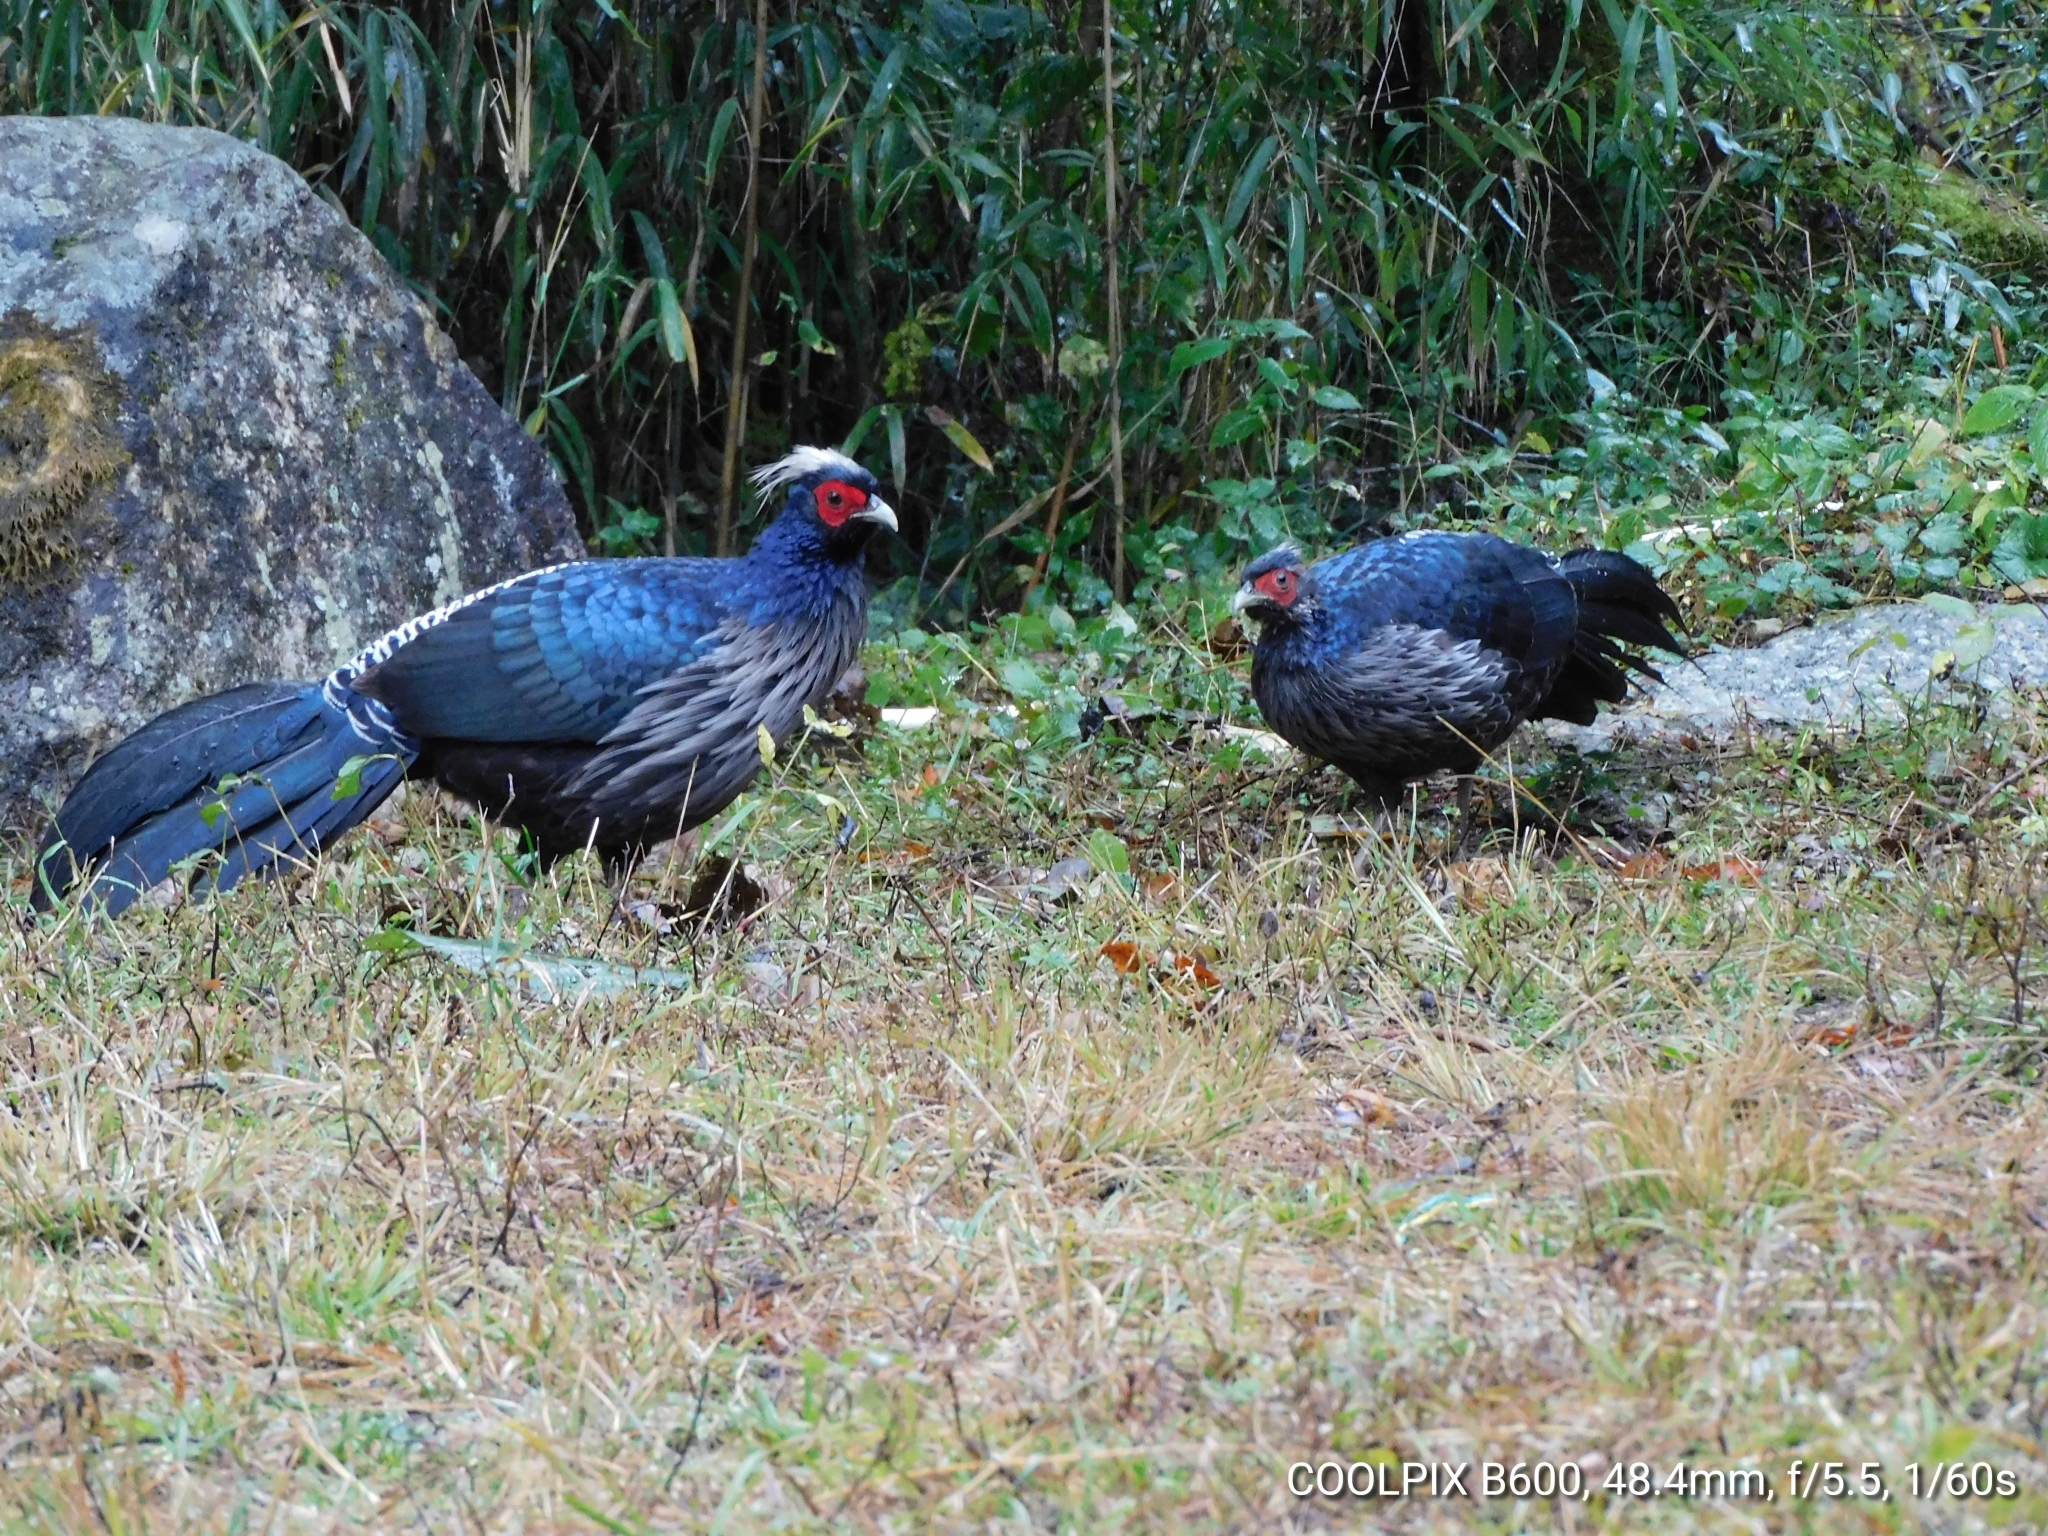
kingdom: Animalia
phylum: Chordata
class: Aves
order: Galliformes
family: Phasianidae
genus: Lophura
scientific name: Lophura leucomelanos
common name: Kalij pheasant
